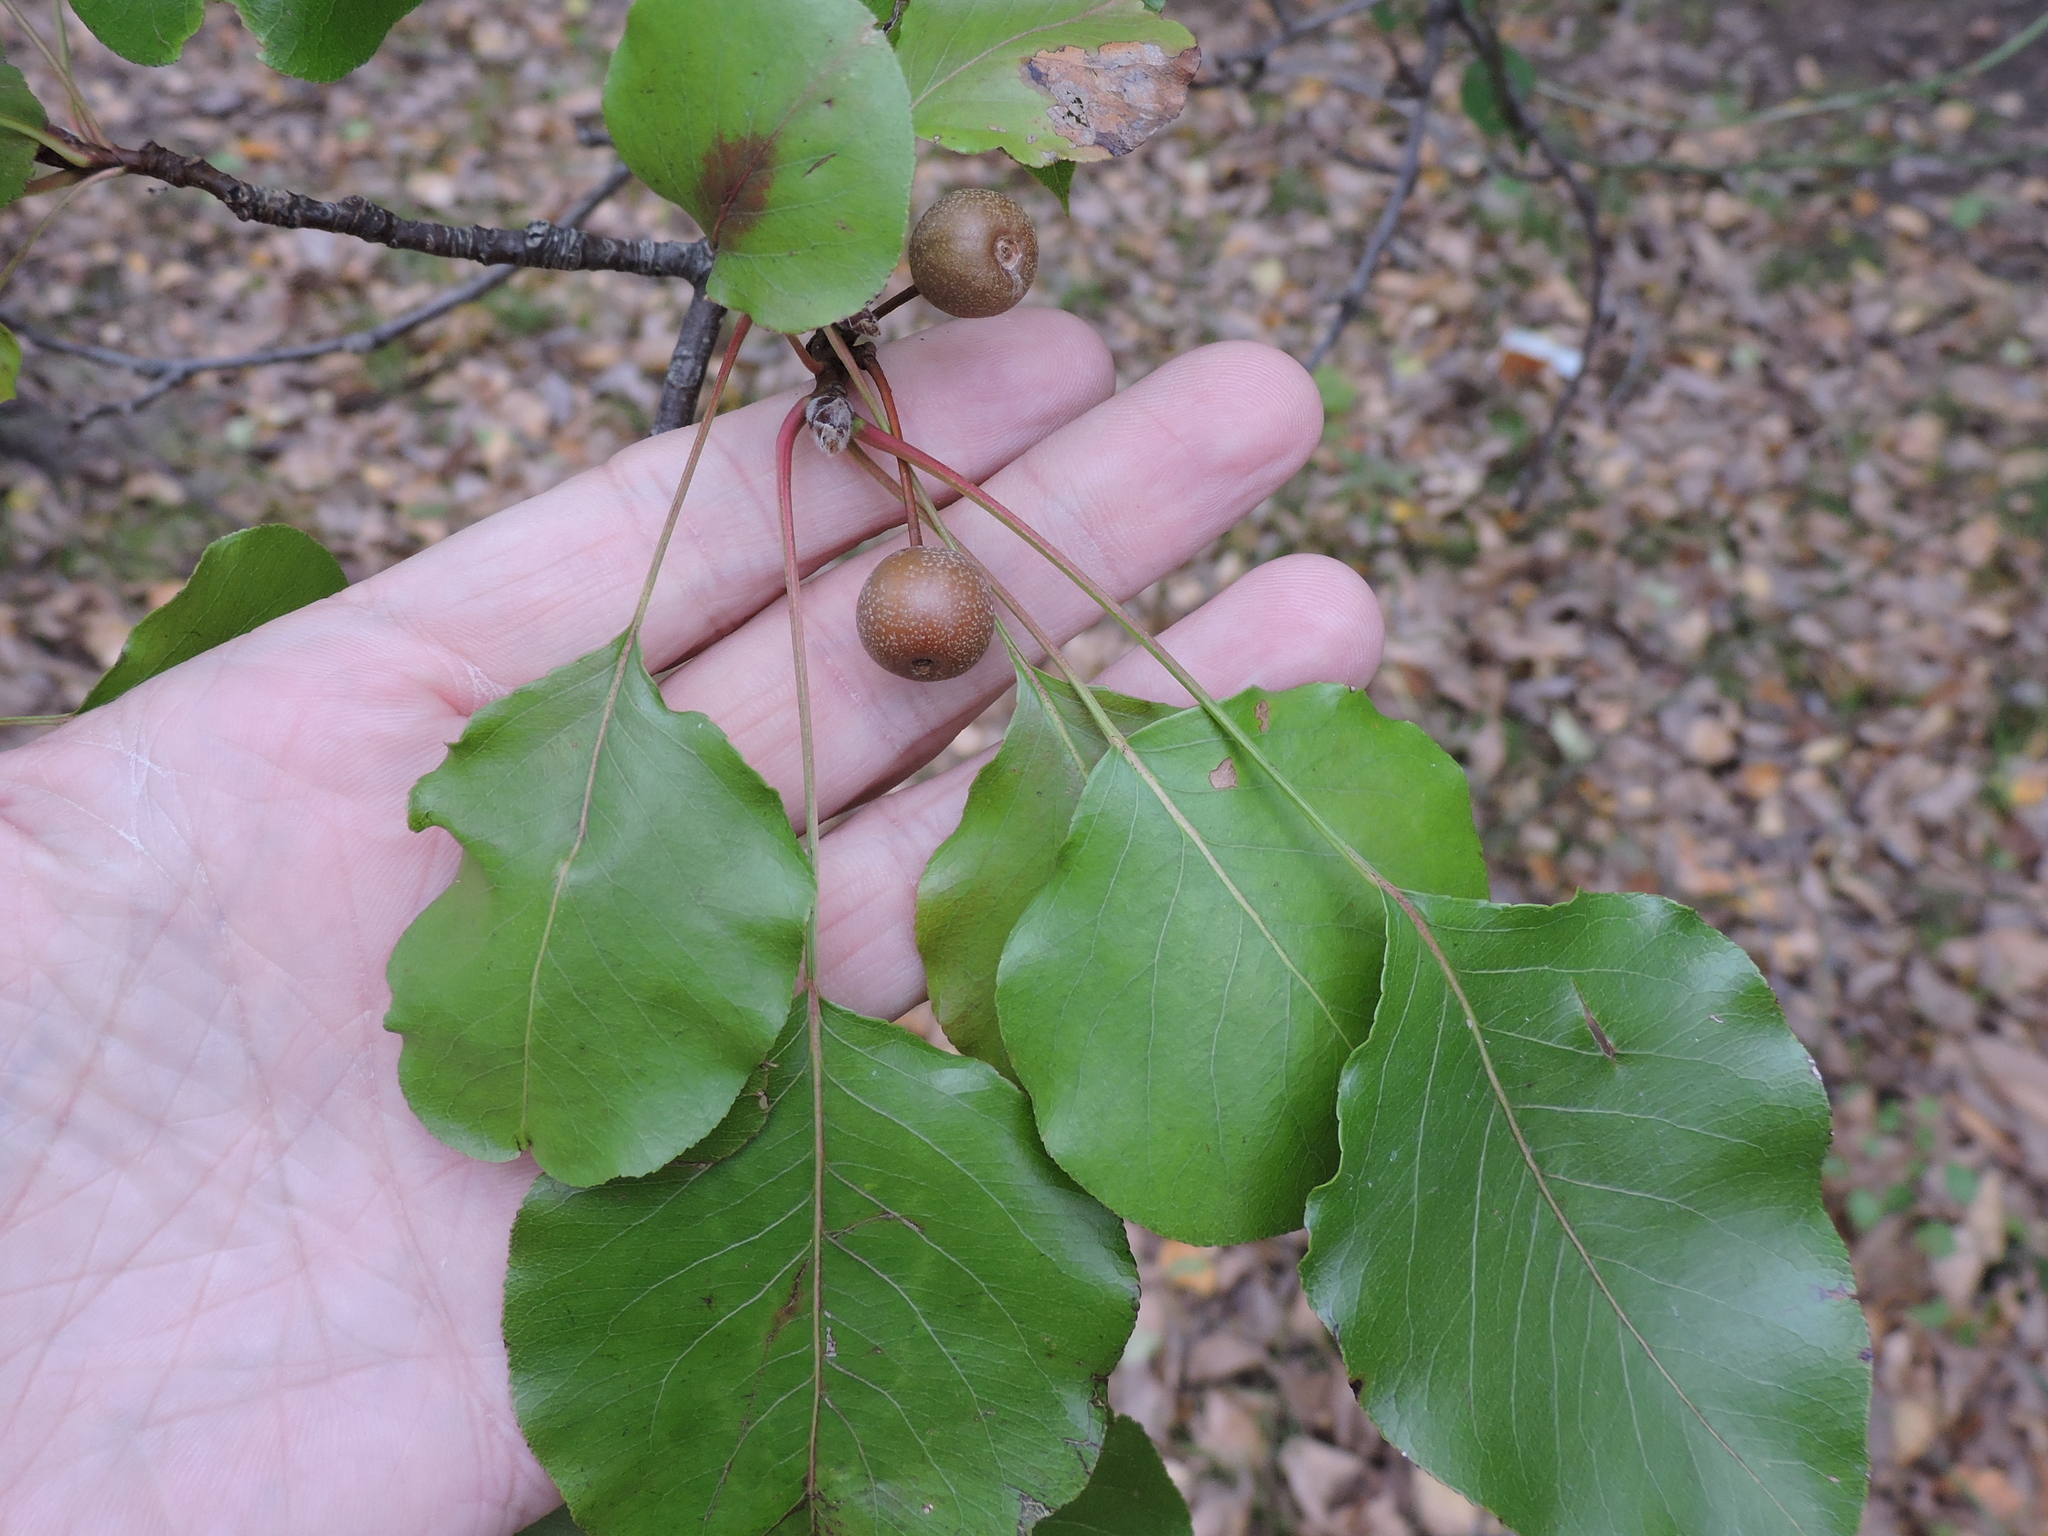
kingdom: Plantae
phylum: Tracheophyta
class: Magnoliopsida
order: Rosales
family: Rosaceae
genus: Pyrus
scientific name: Pyrus calleryana
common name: Callery pear
